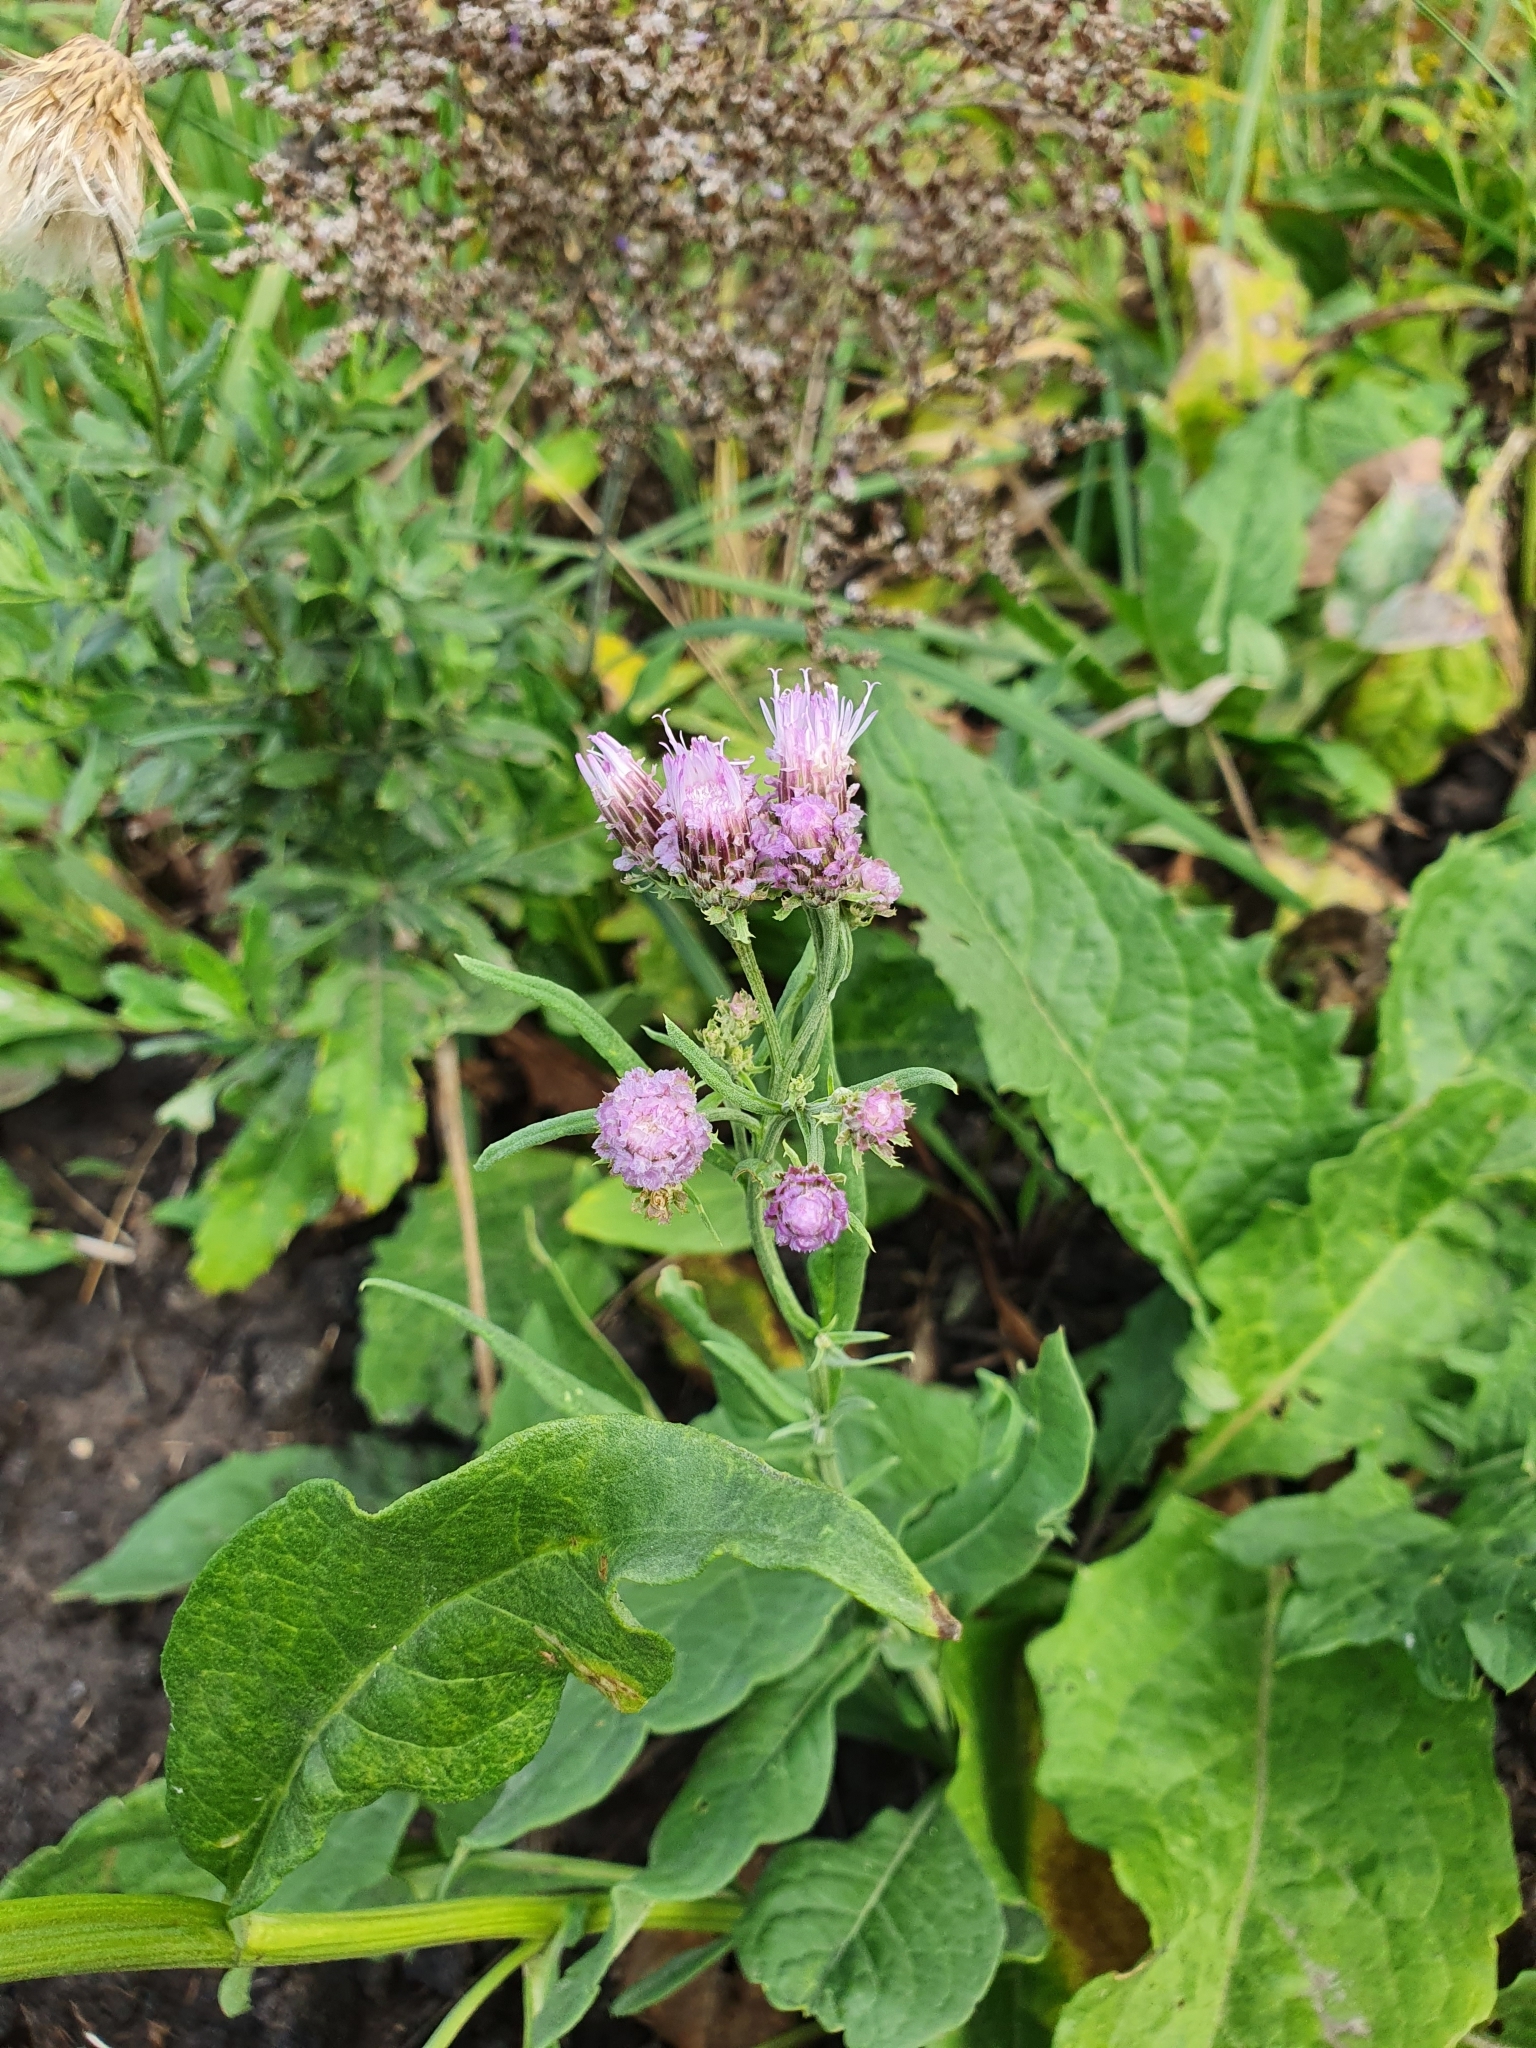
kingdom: Plantae
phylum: Tracheophyta
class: Magnoliopsida
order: Asterales
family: Asteraceae
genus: Saussurea
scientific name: Saussurea amara
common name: Alberta sawwort
